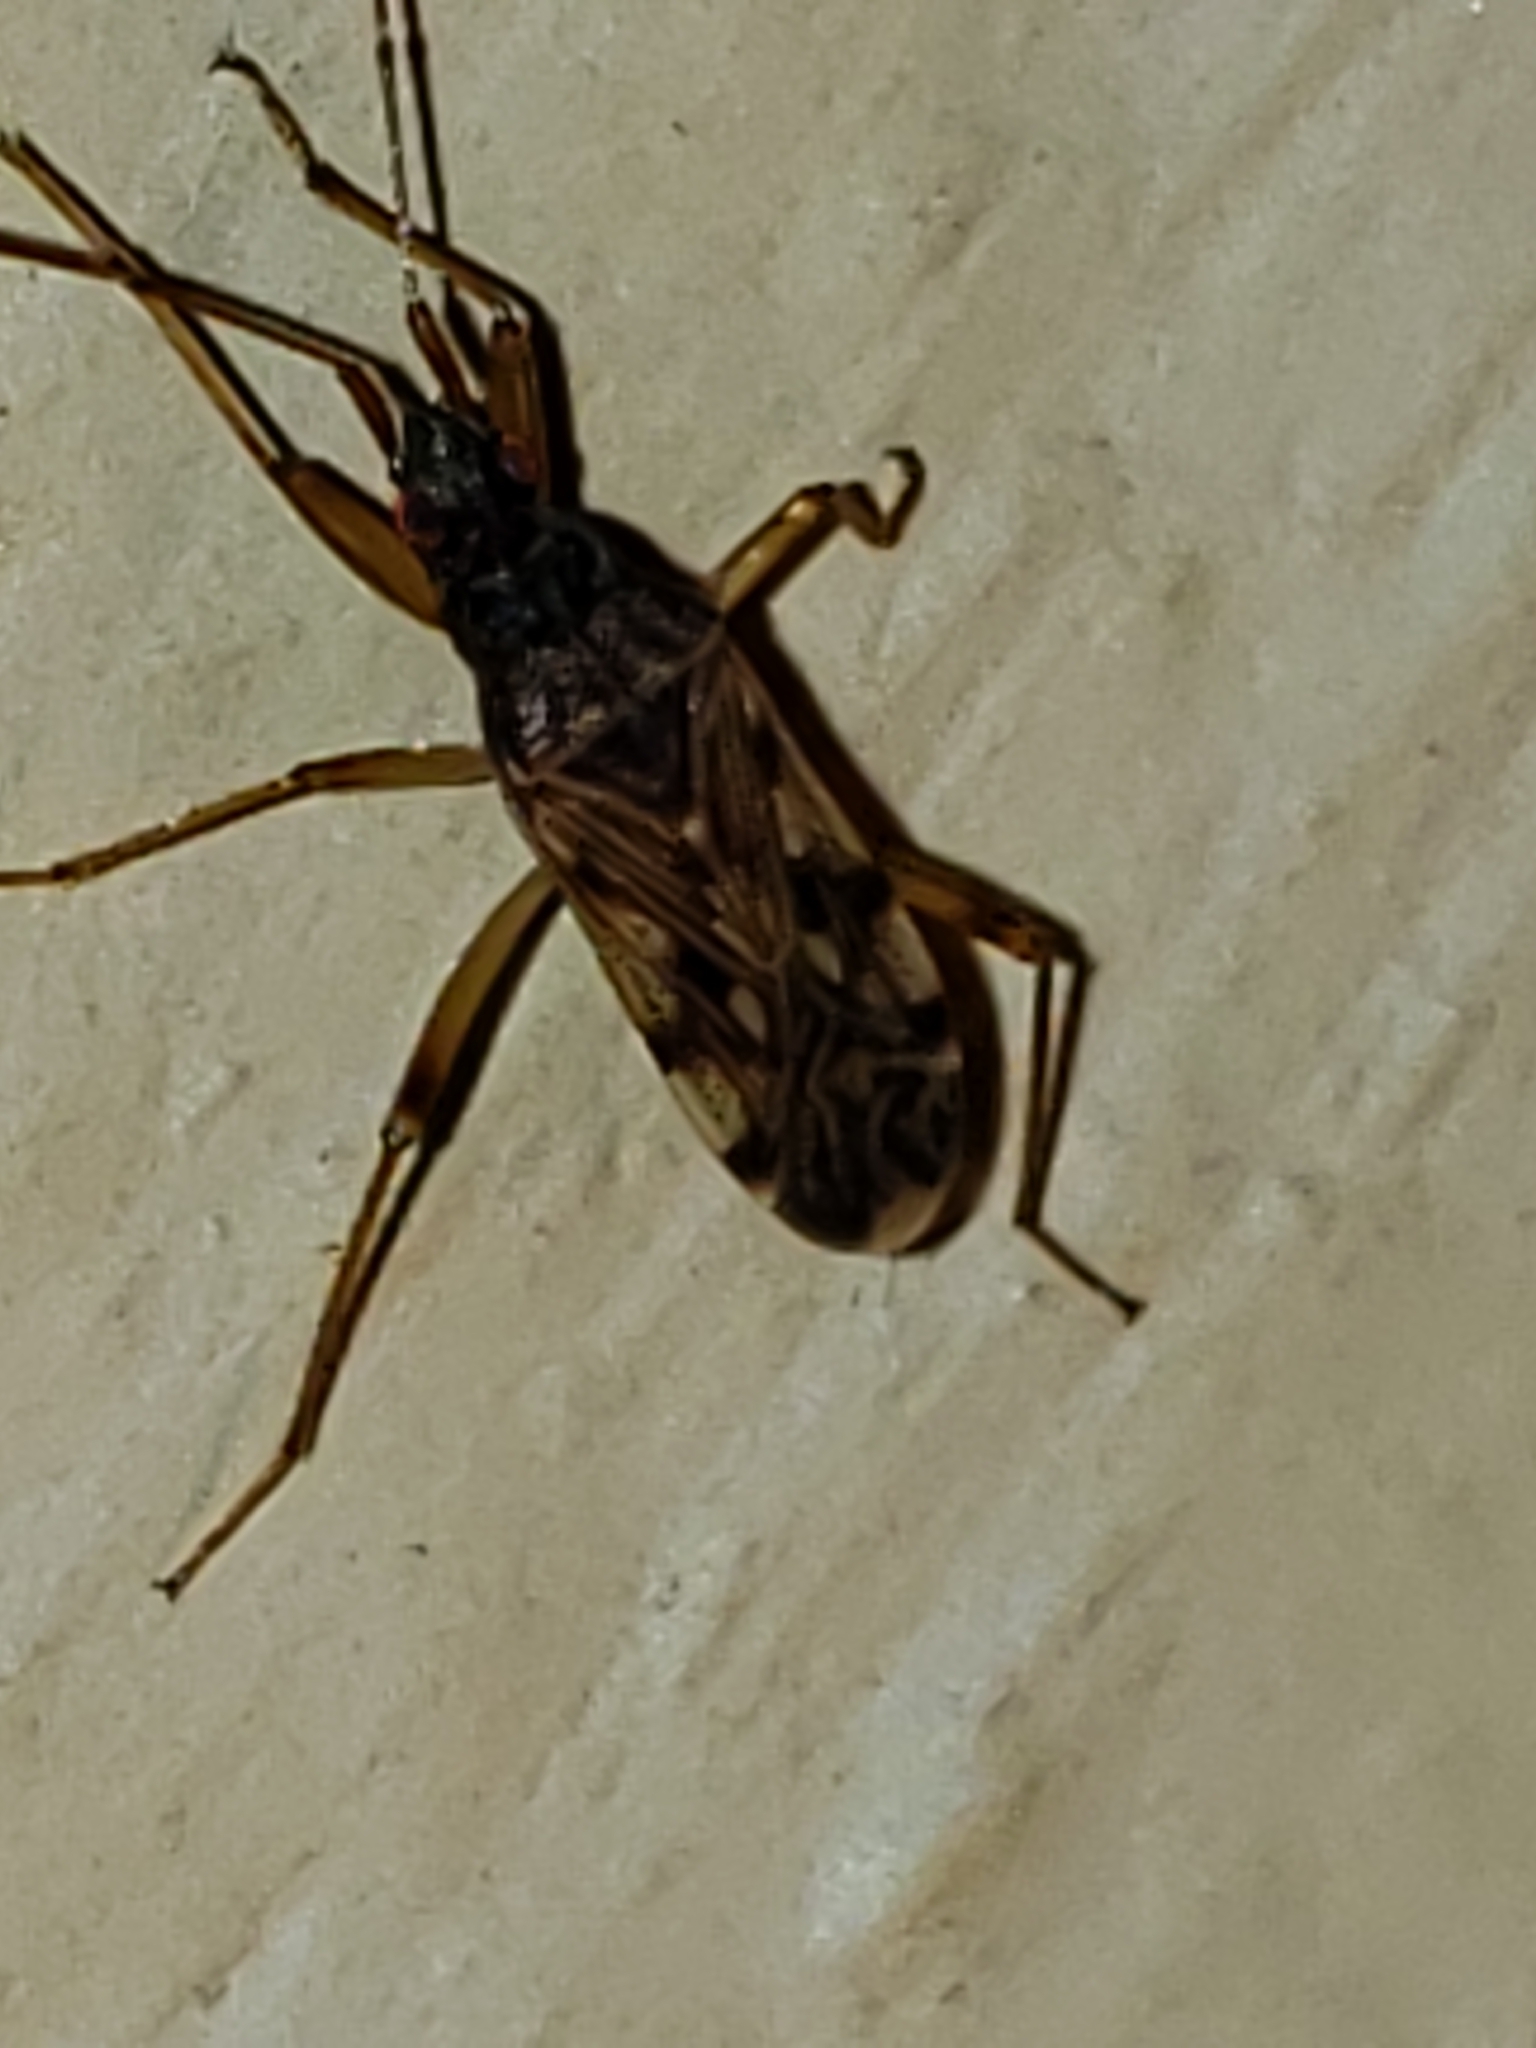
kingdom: Animalia
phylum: Arthropoda
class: Insecta
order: Hemiptera
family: Rhyparochromidae
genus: Ozophora
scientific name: Ozophora picturata
